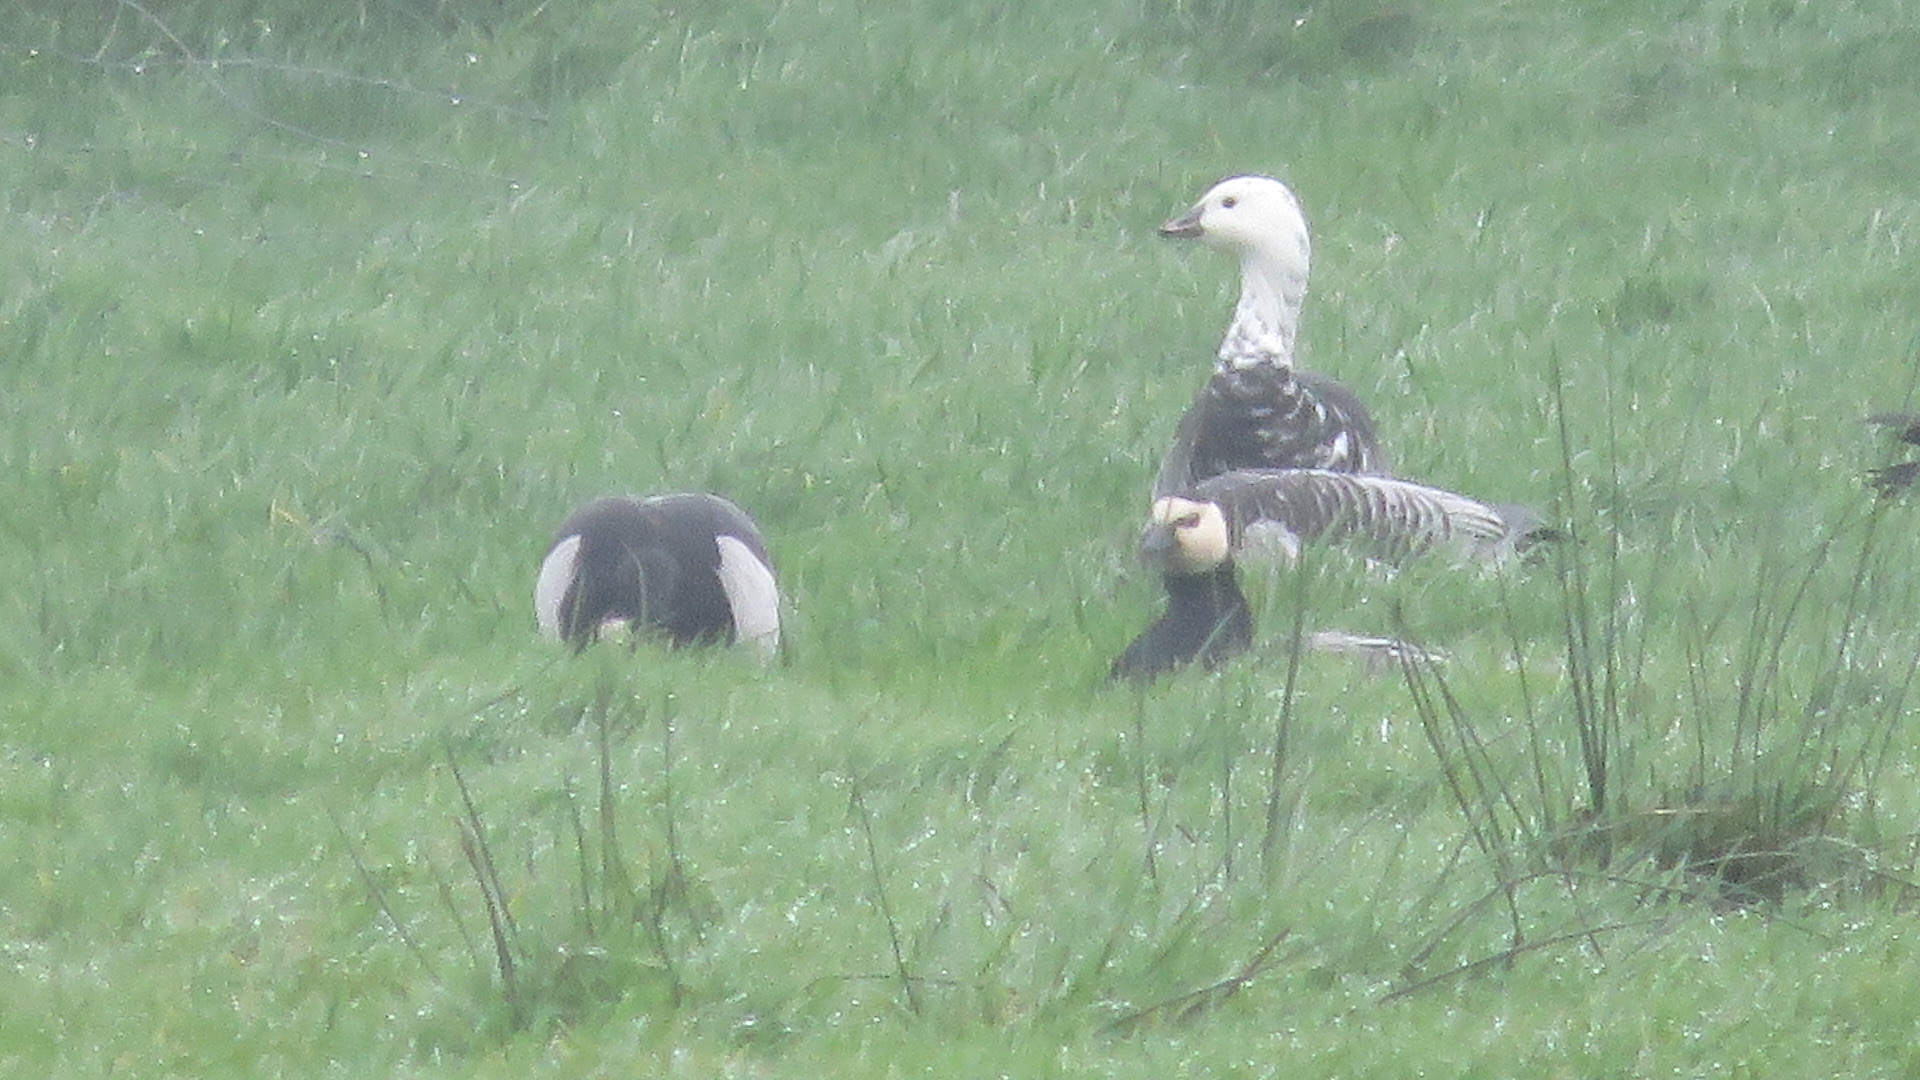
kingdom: Animalia
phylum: Chordata
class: Aves
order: Anseriformes
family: Anatidae
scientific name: Anatidae
